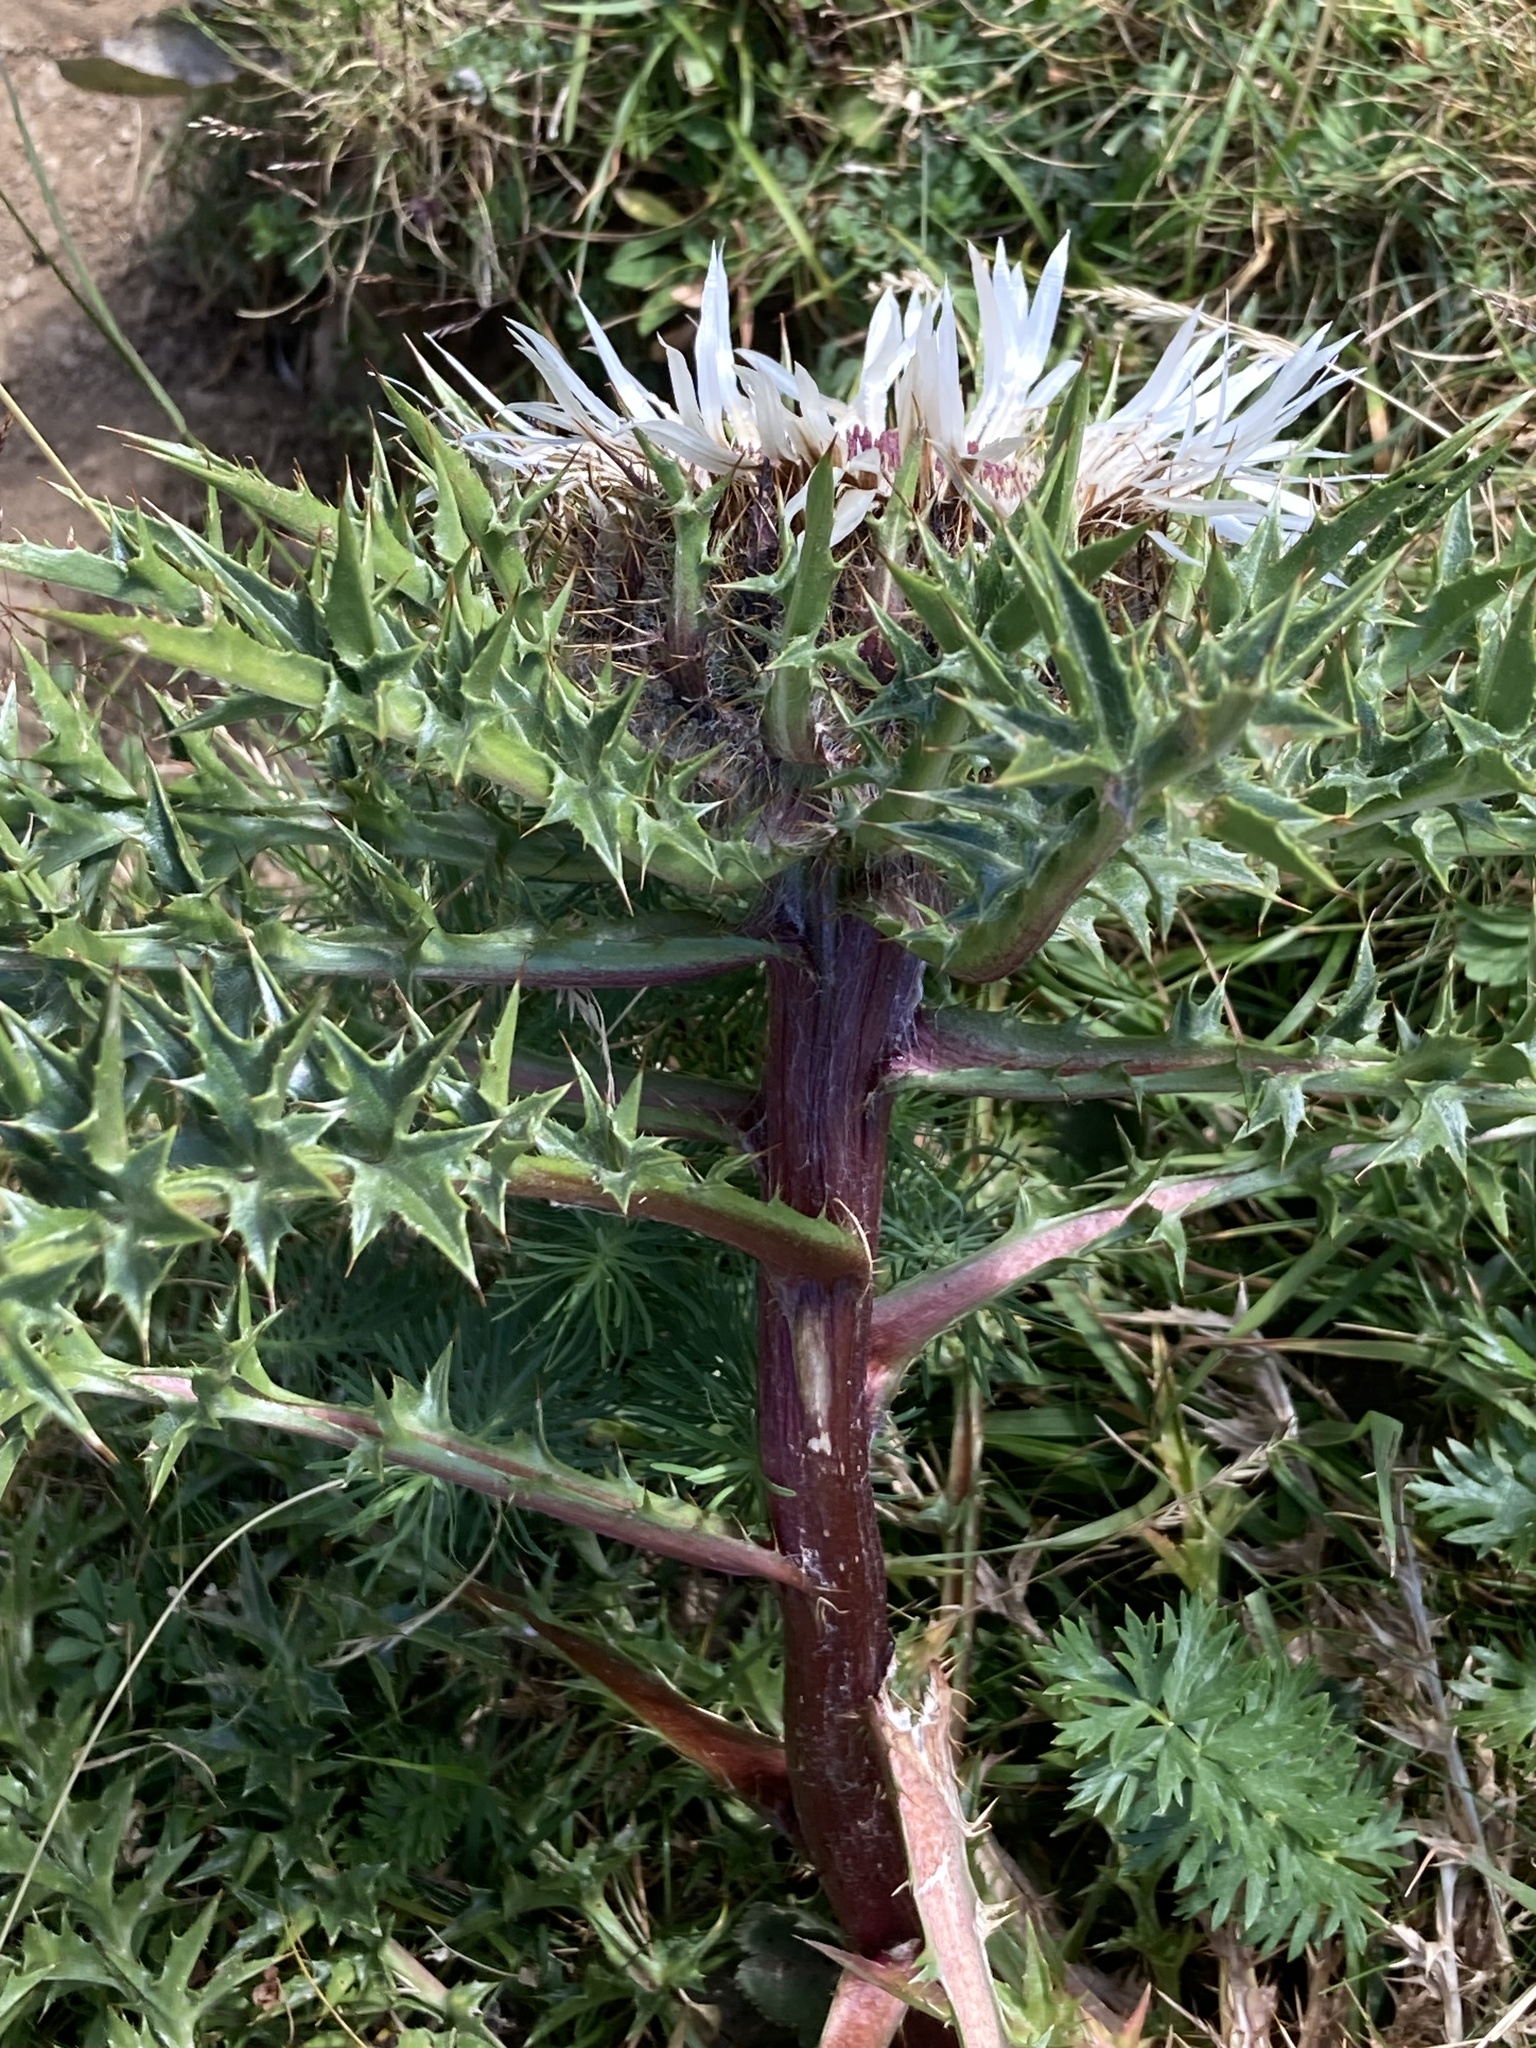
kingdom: Plantae
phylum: Tracheophyta
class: Magnoliopsida
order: Asterales
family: Asteraceae
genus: Carlina
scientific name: Carlina acaulis
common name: Stemless carline thistle
